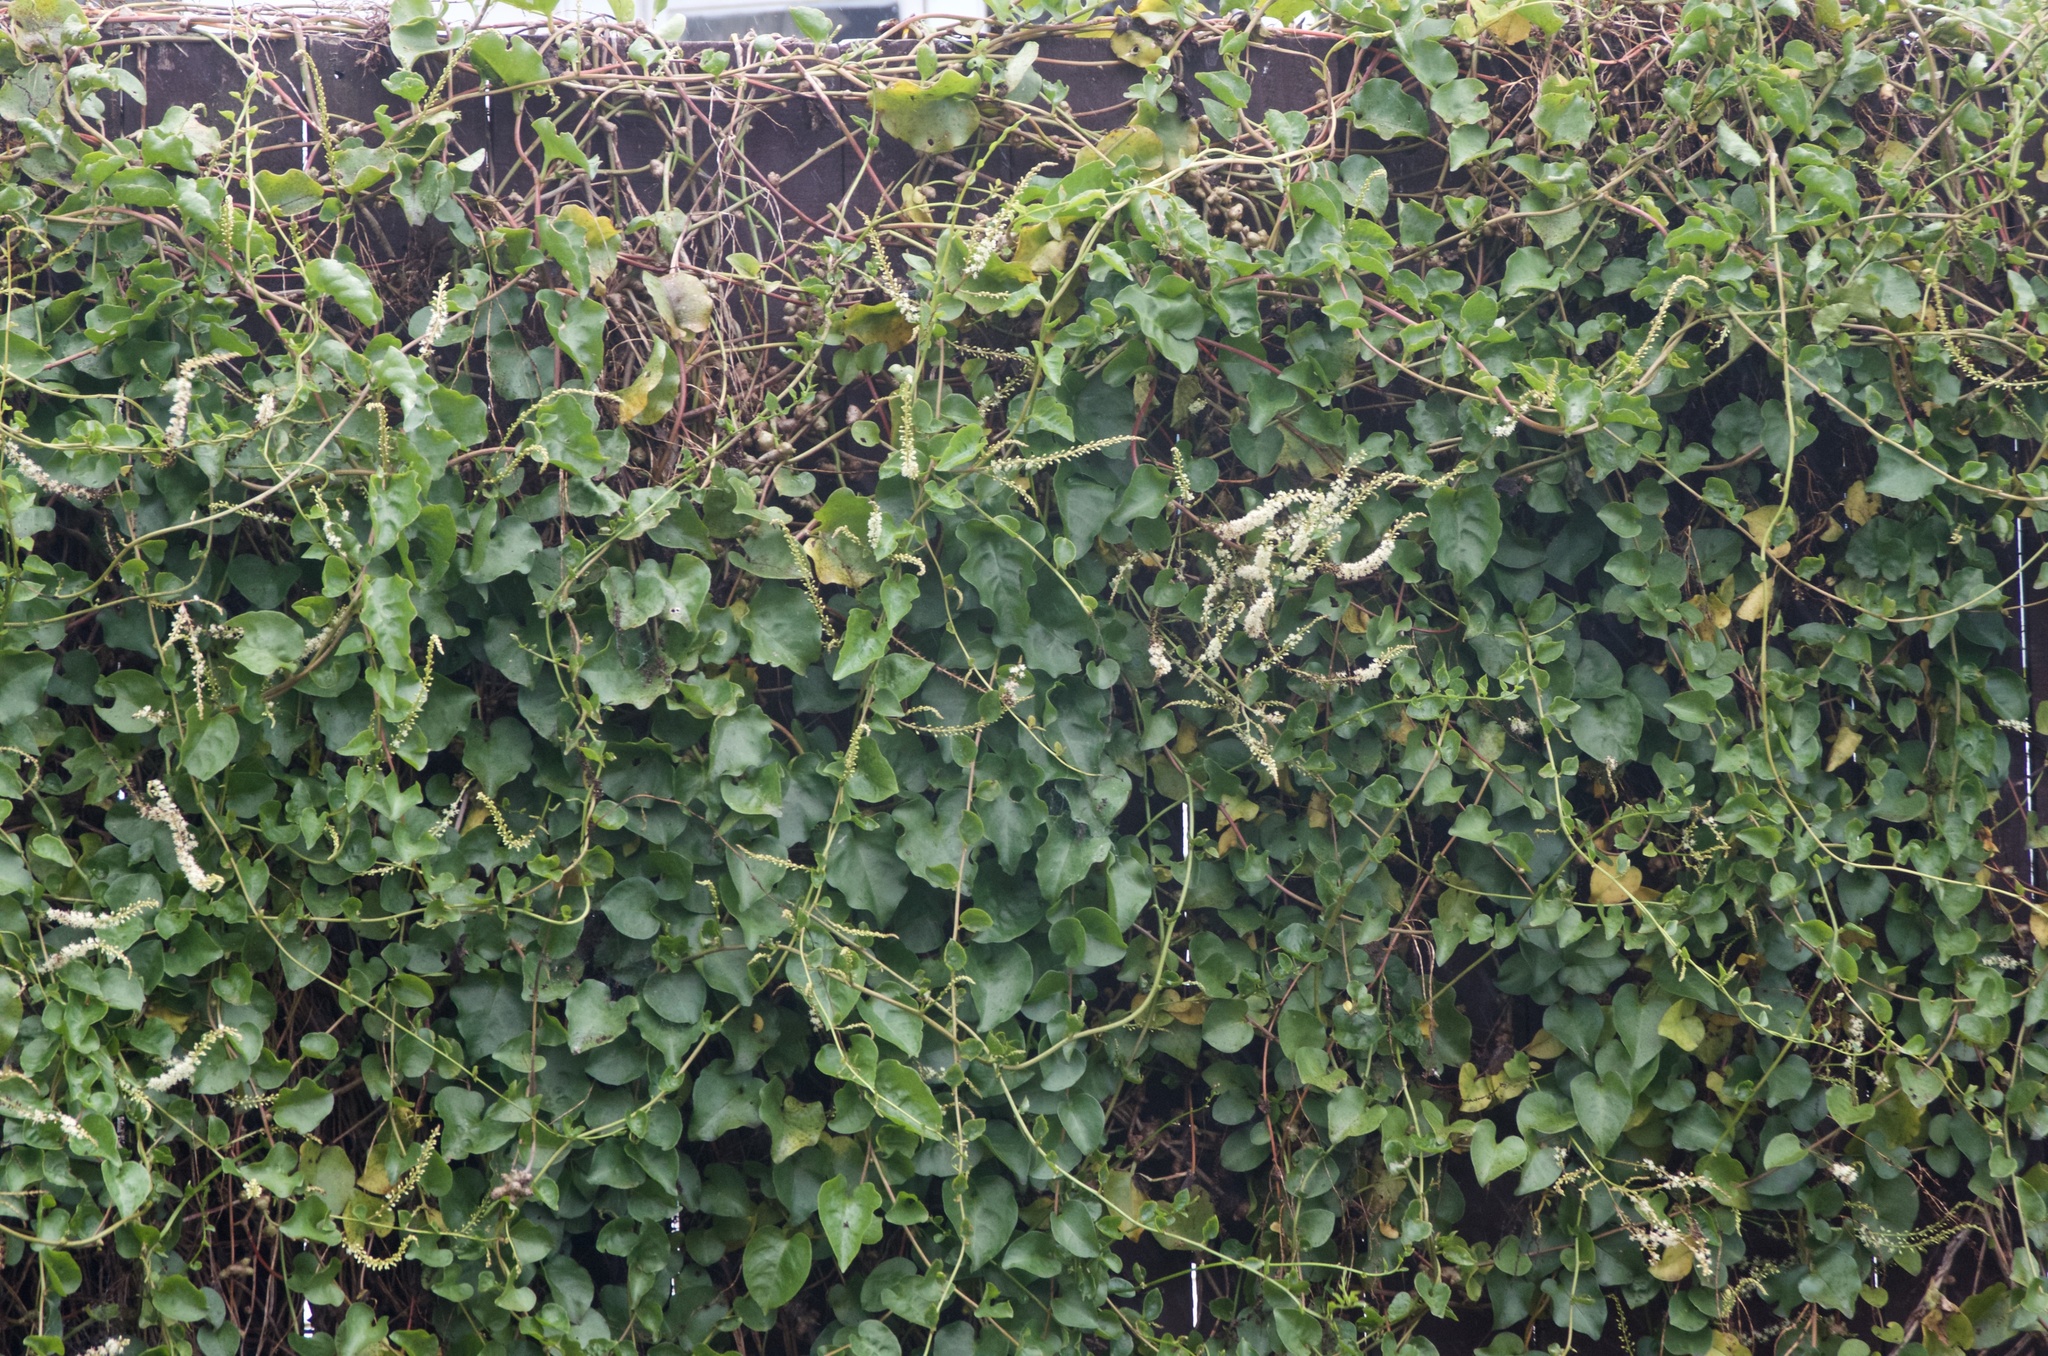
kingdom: Plantae
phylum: Tracheophyta
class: Magnoliopsida
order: Caryophyllales
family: Basellaceae
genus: Anredera
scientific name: Anredera cordifolia
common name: Heartleaf madeiravine
